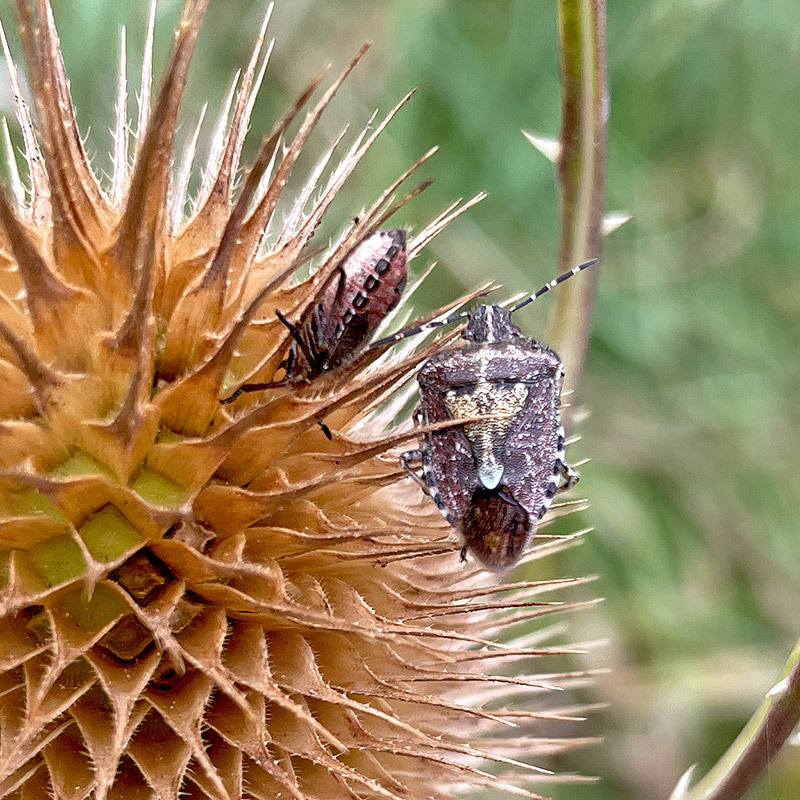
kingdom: Animalia
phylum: Arthropoda
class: Insecta
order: Hemiptera
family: Pentatomidae
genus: Dolycoris
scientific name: Dolycoris baccarum
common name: Sloe bug
